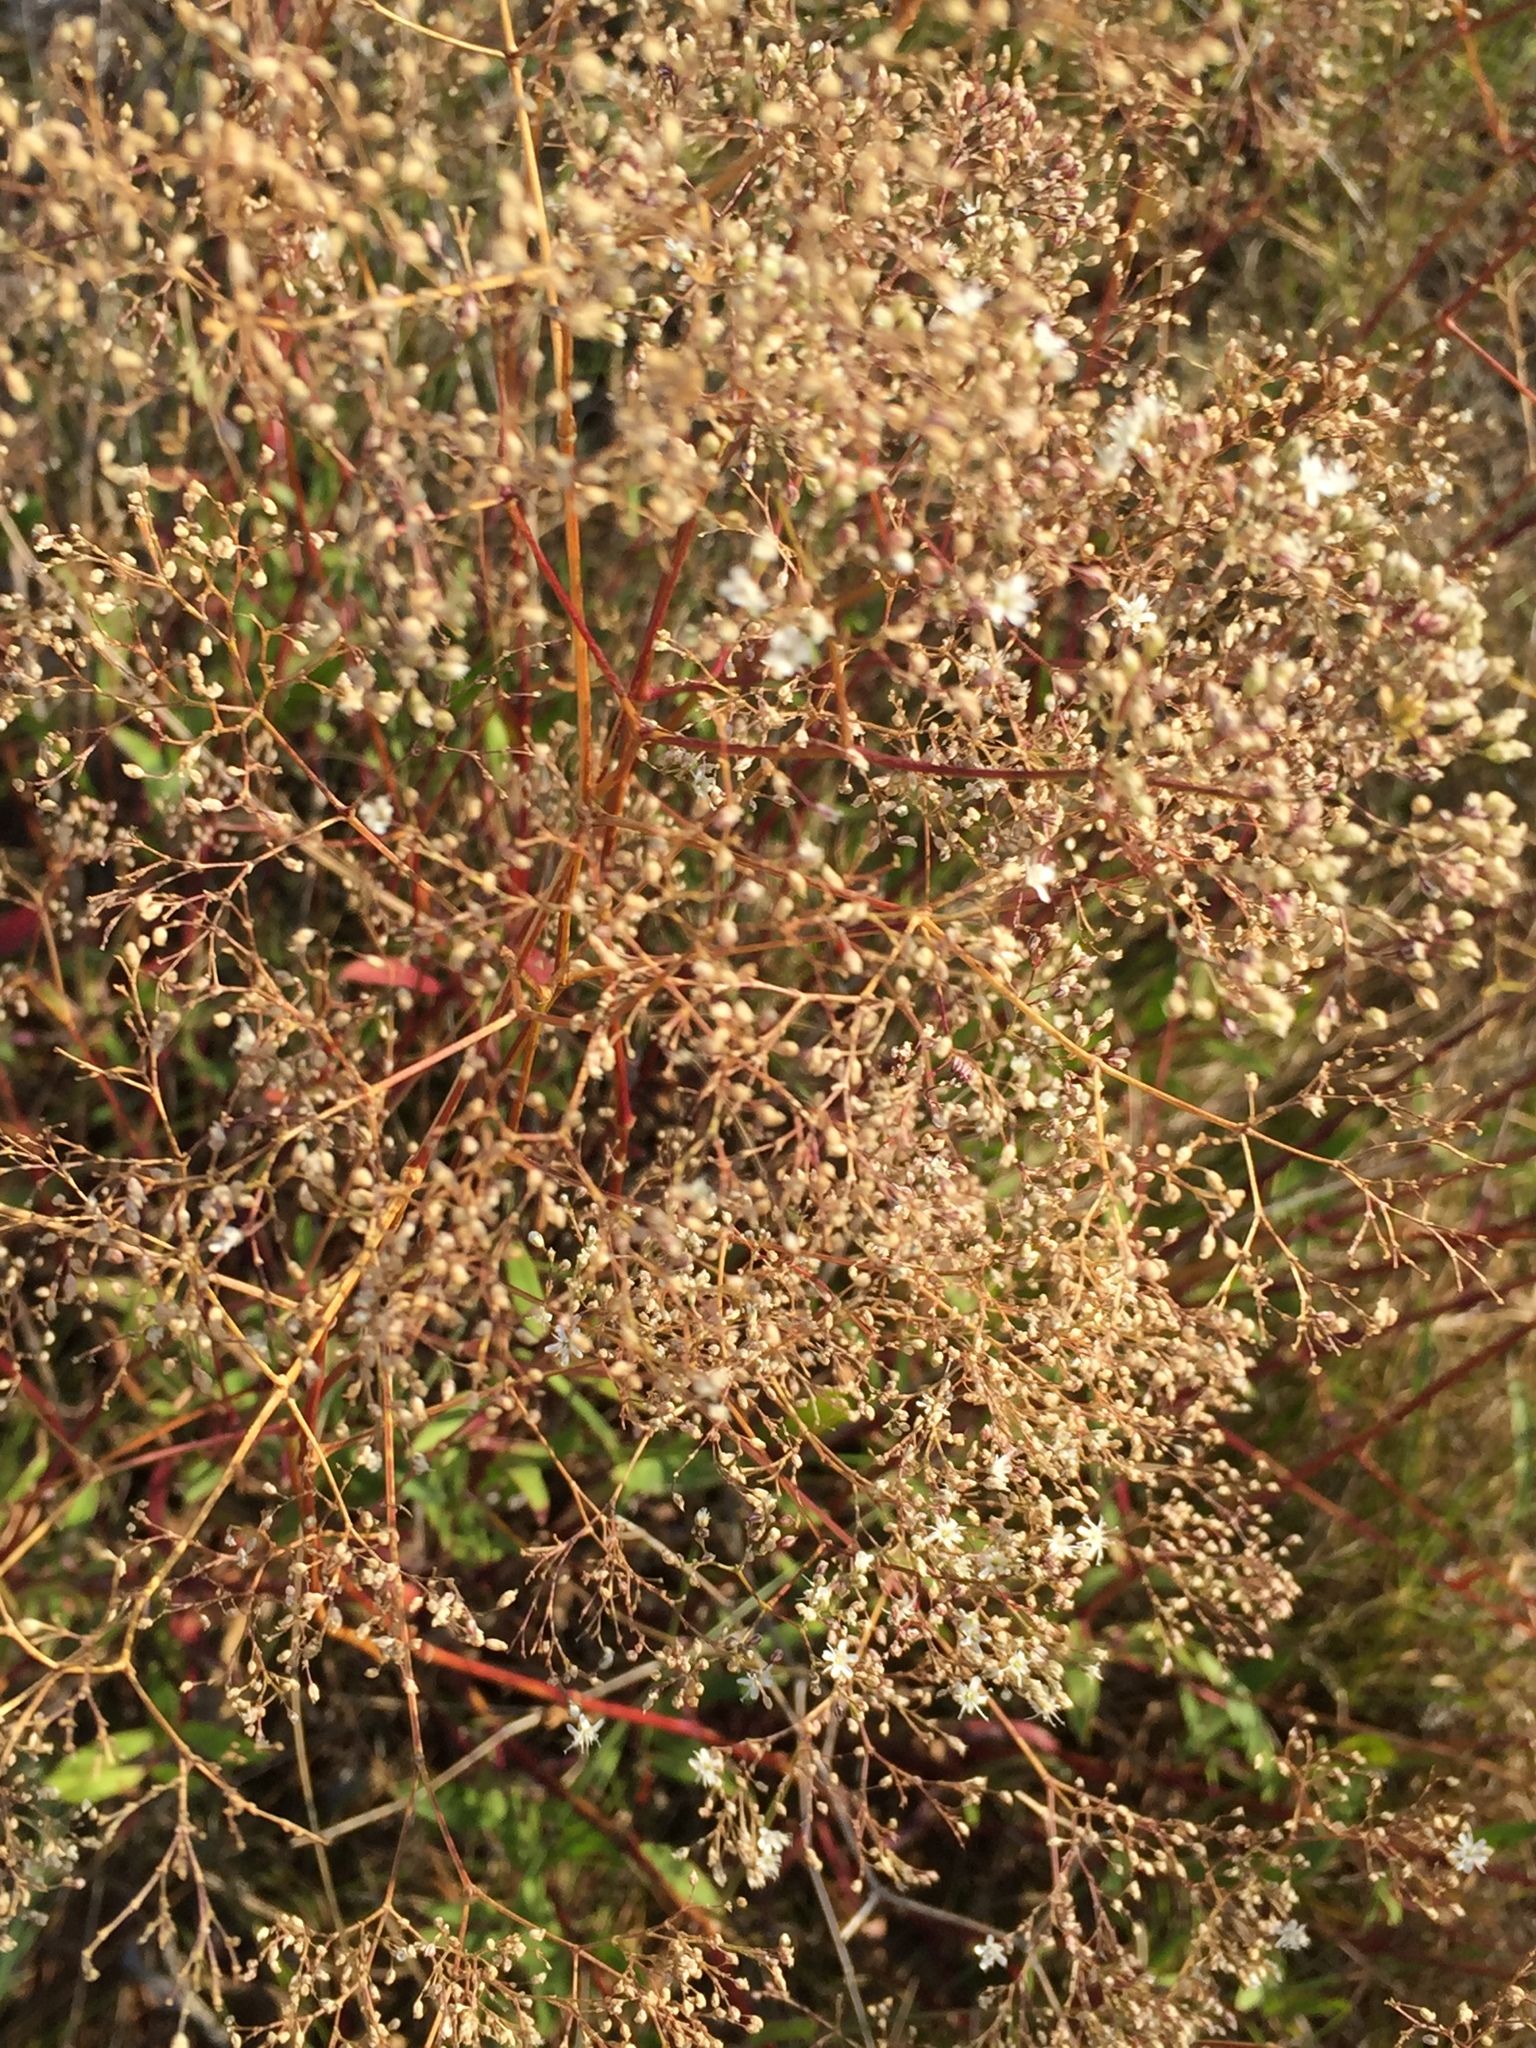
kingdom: Plantae
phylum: Tracheophyta
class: Magnoliopsida
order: Caryophyllales
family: Caryophyllaceae
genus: Gypsophila
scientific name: Gypsophila altissima
